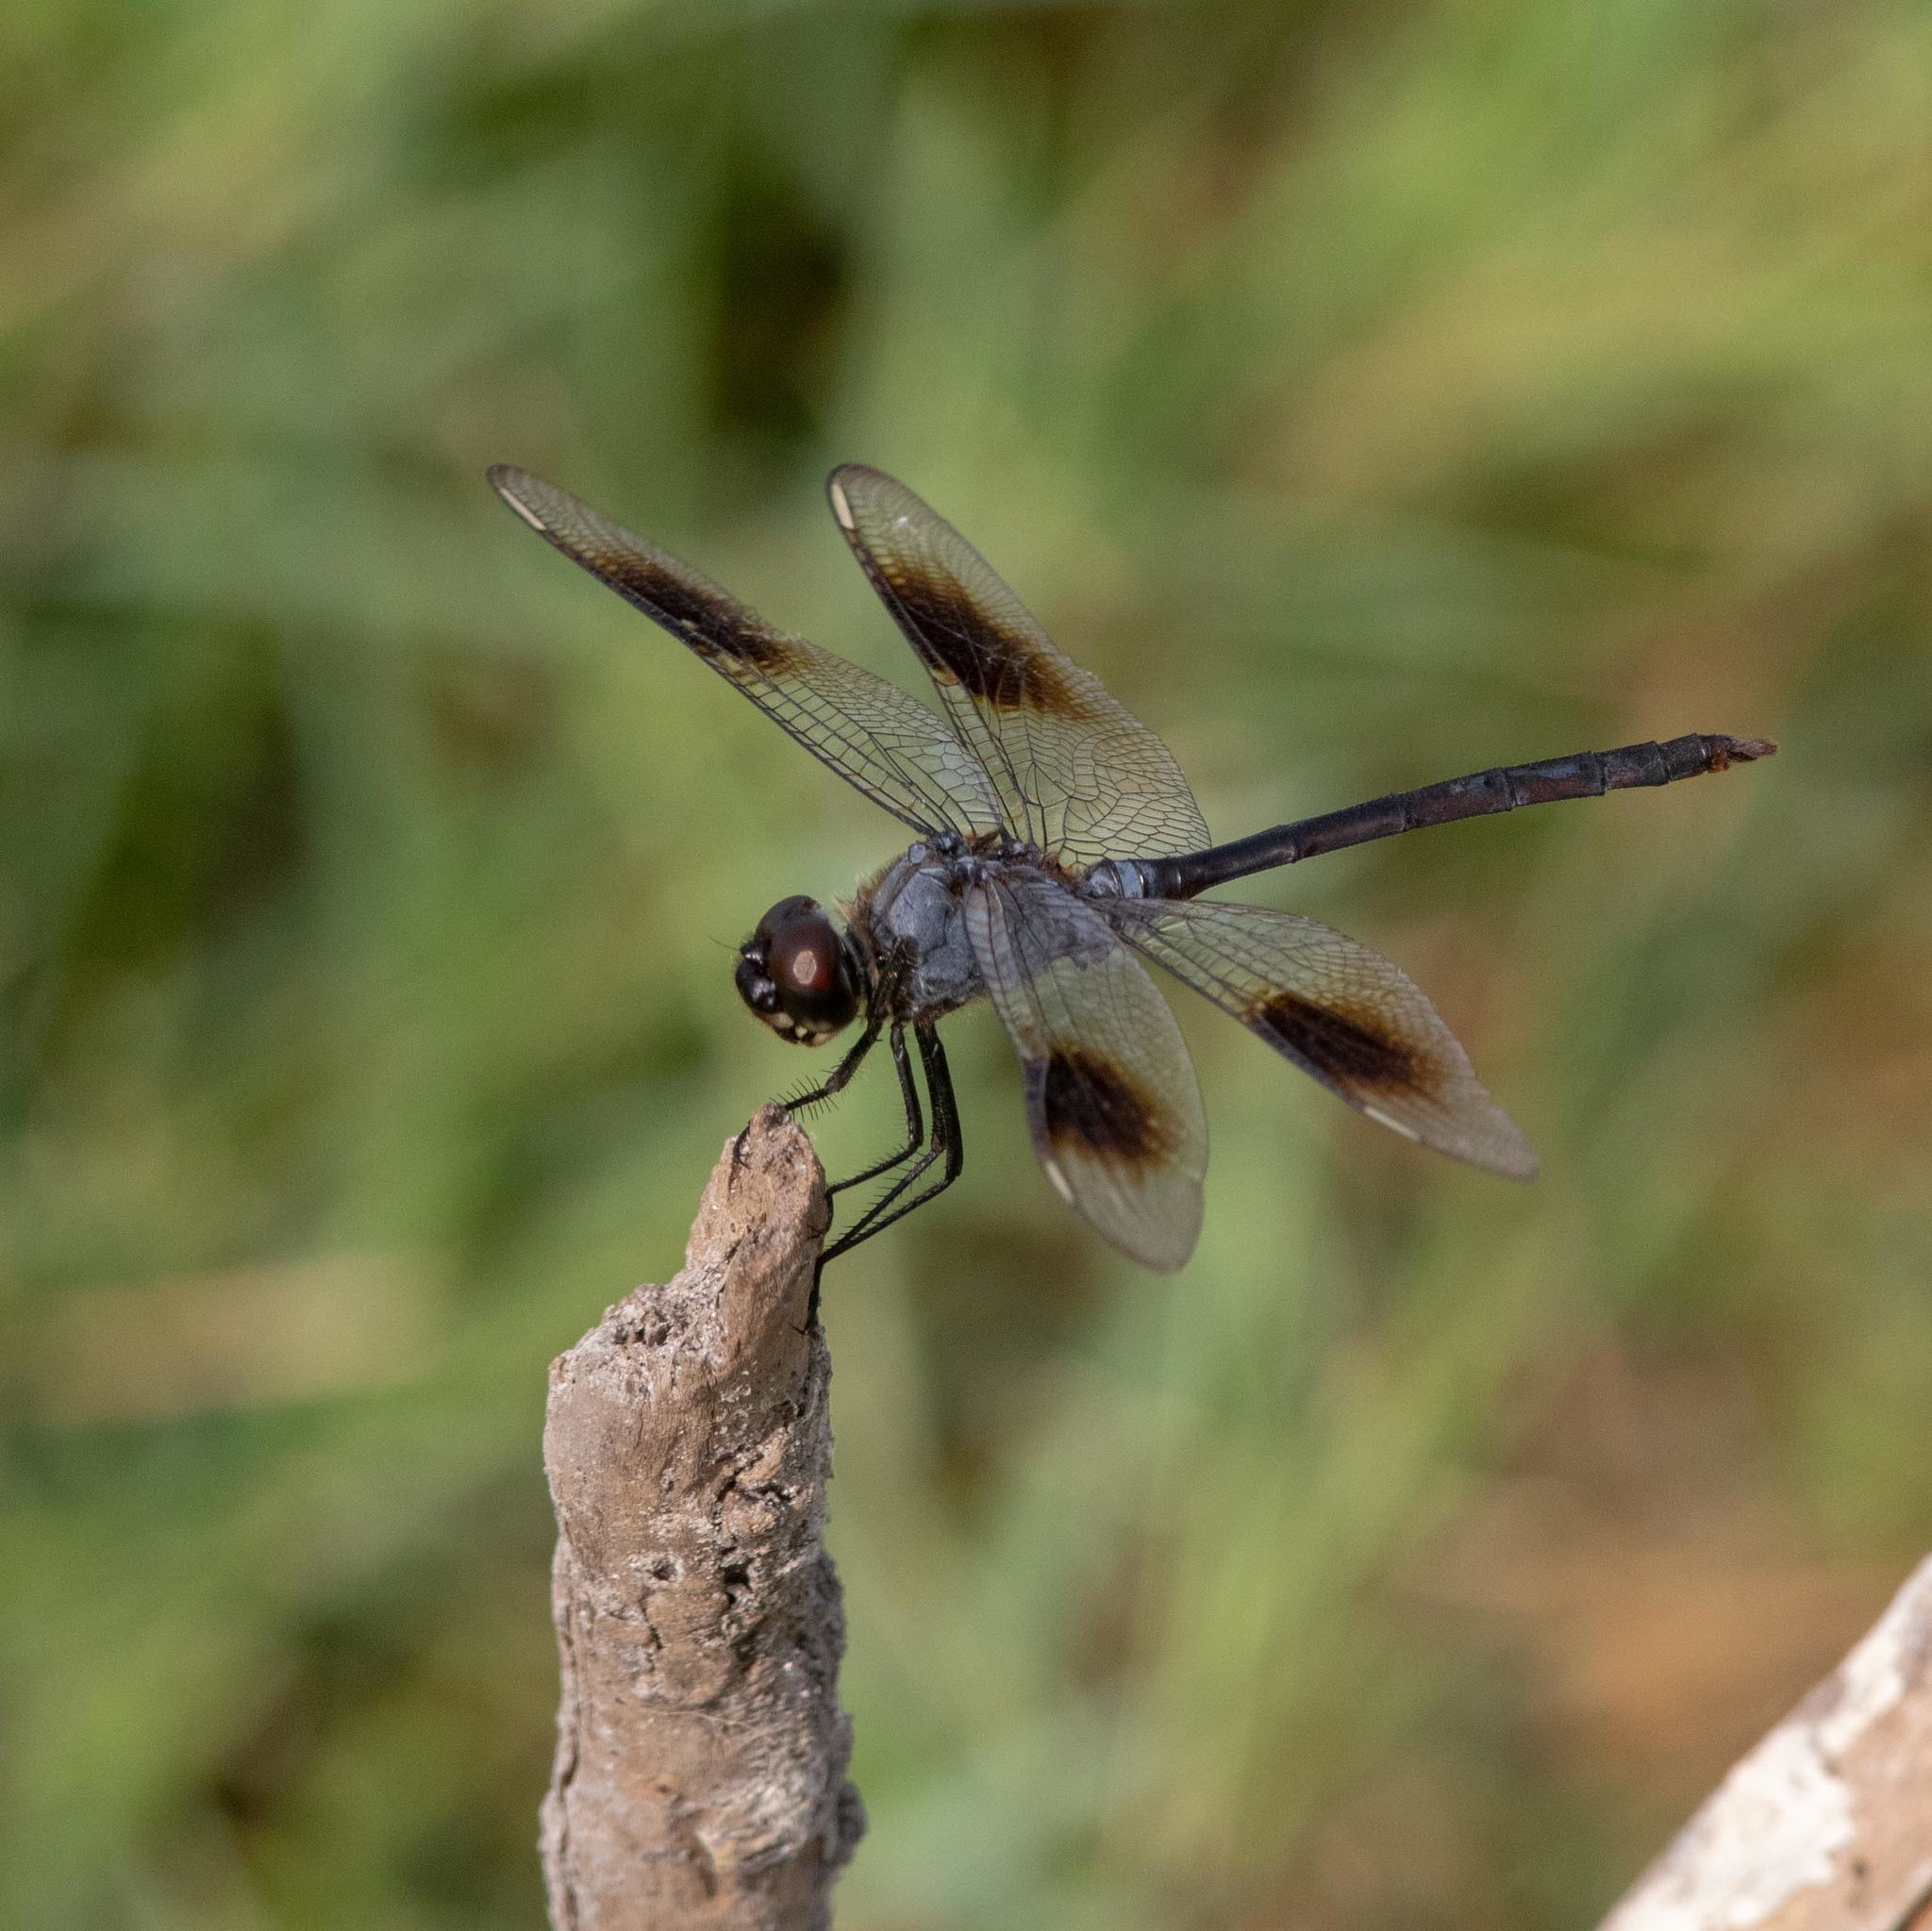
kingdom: Animalia
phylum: Arthropoda
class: Insecta
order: Odonata
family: Libellulidae
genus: Brachymesia
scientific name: Brachymesia gravida
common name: Four-spotted pennant
